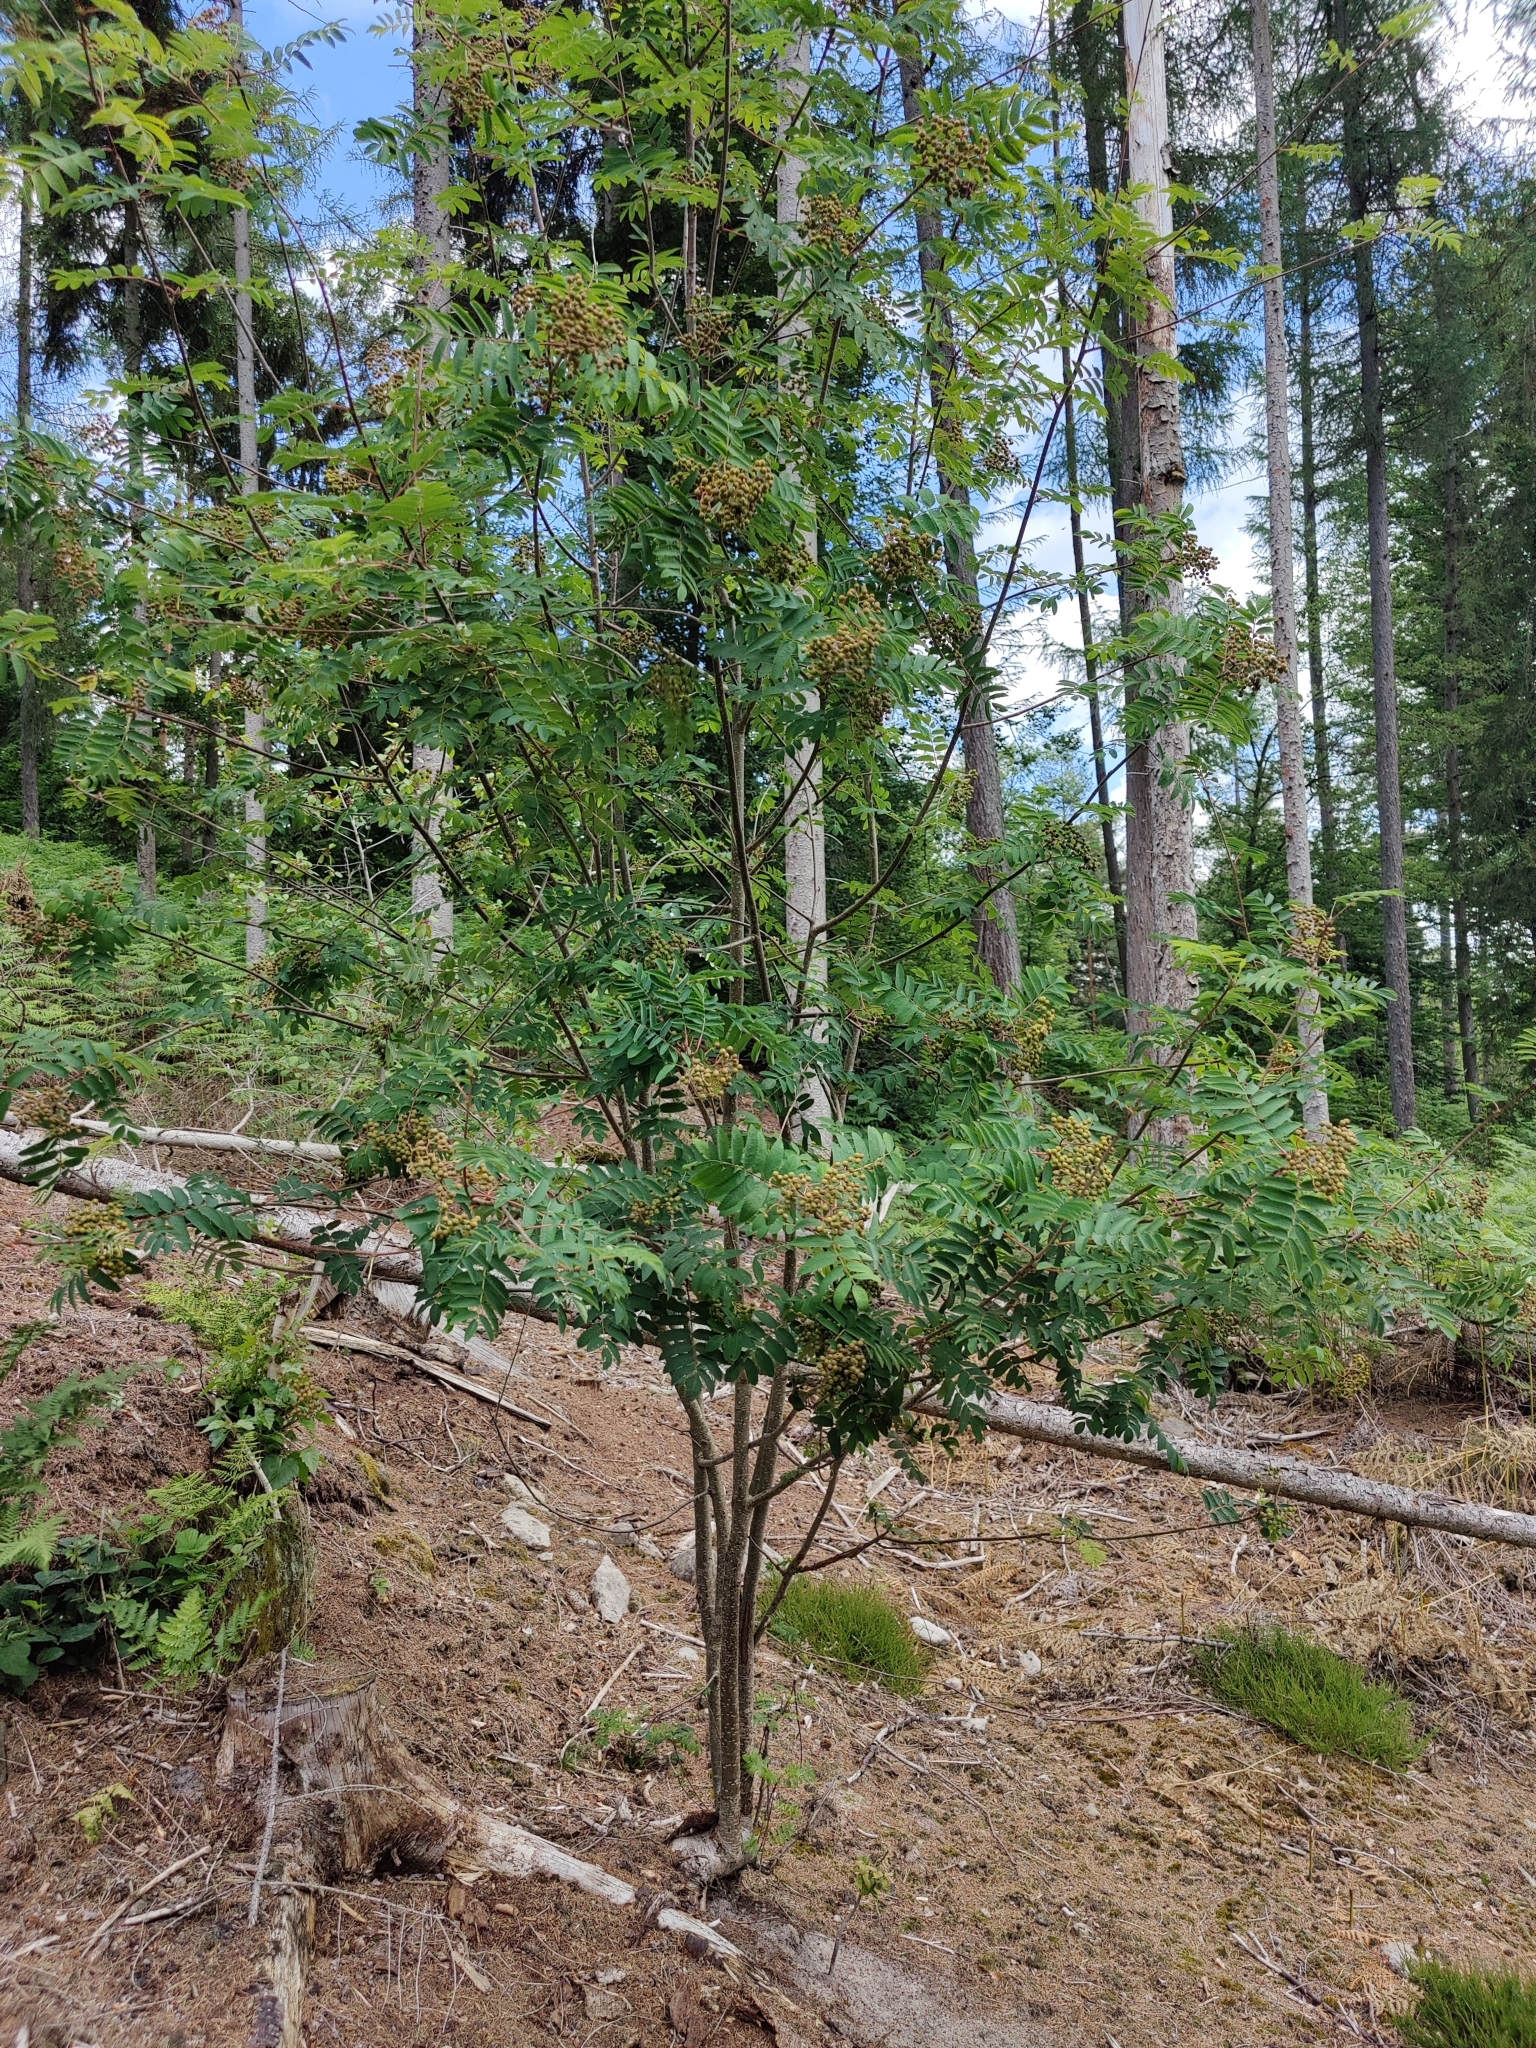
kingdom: Plantae
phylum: Tracheophyta
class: Magnoliopsida
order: Rosales
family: Rosaceae
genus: Sorbus
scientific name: Sorbus aucuparia
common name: Rowan
